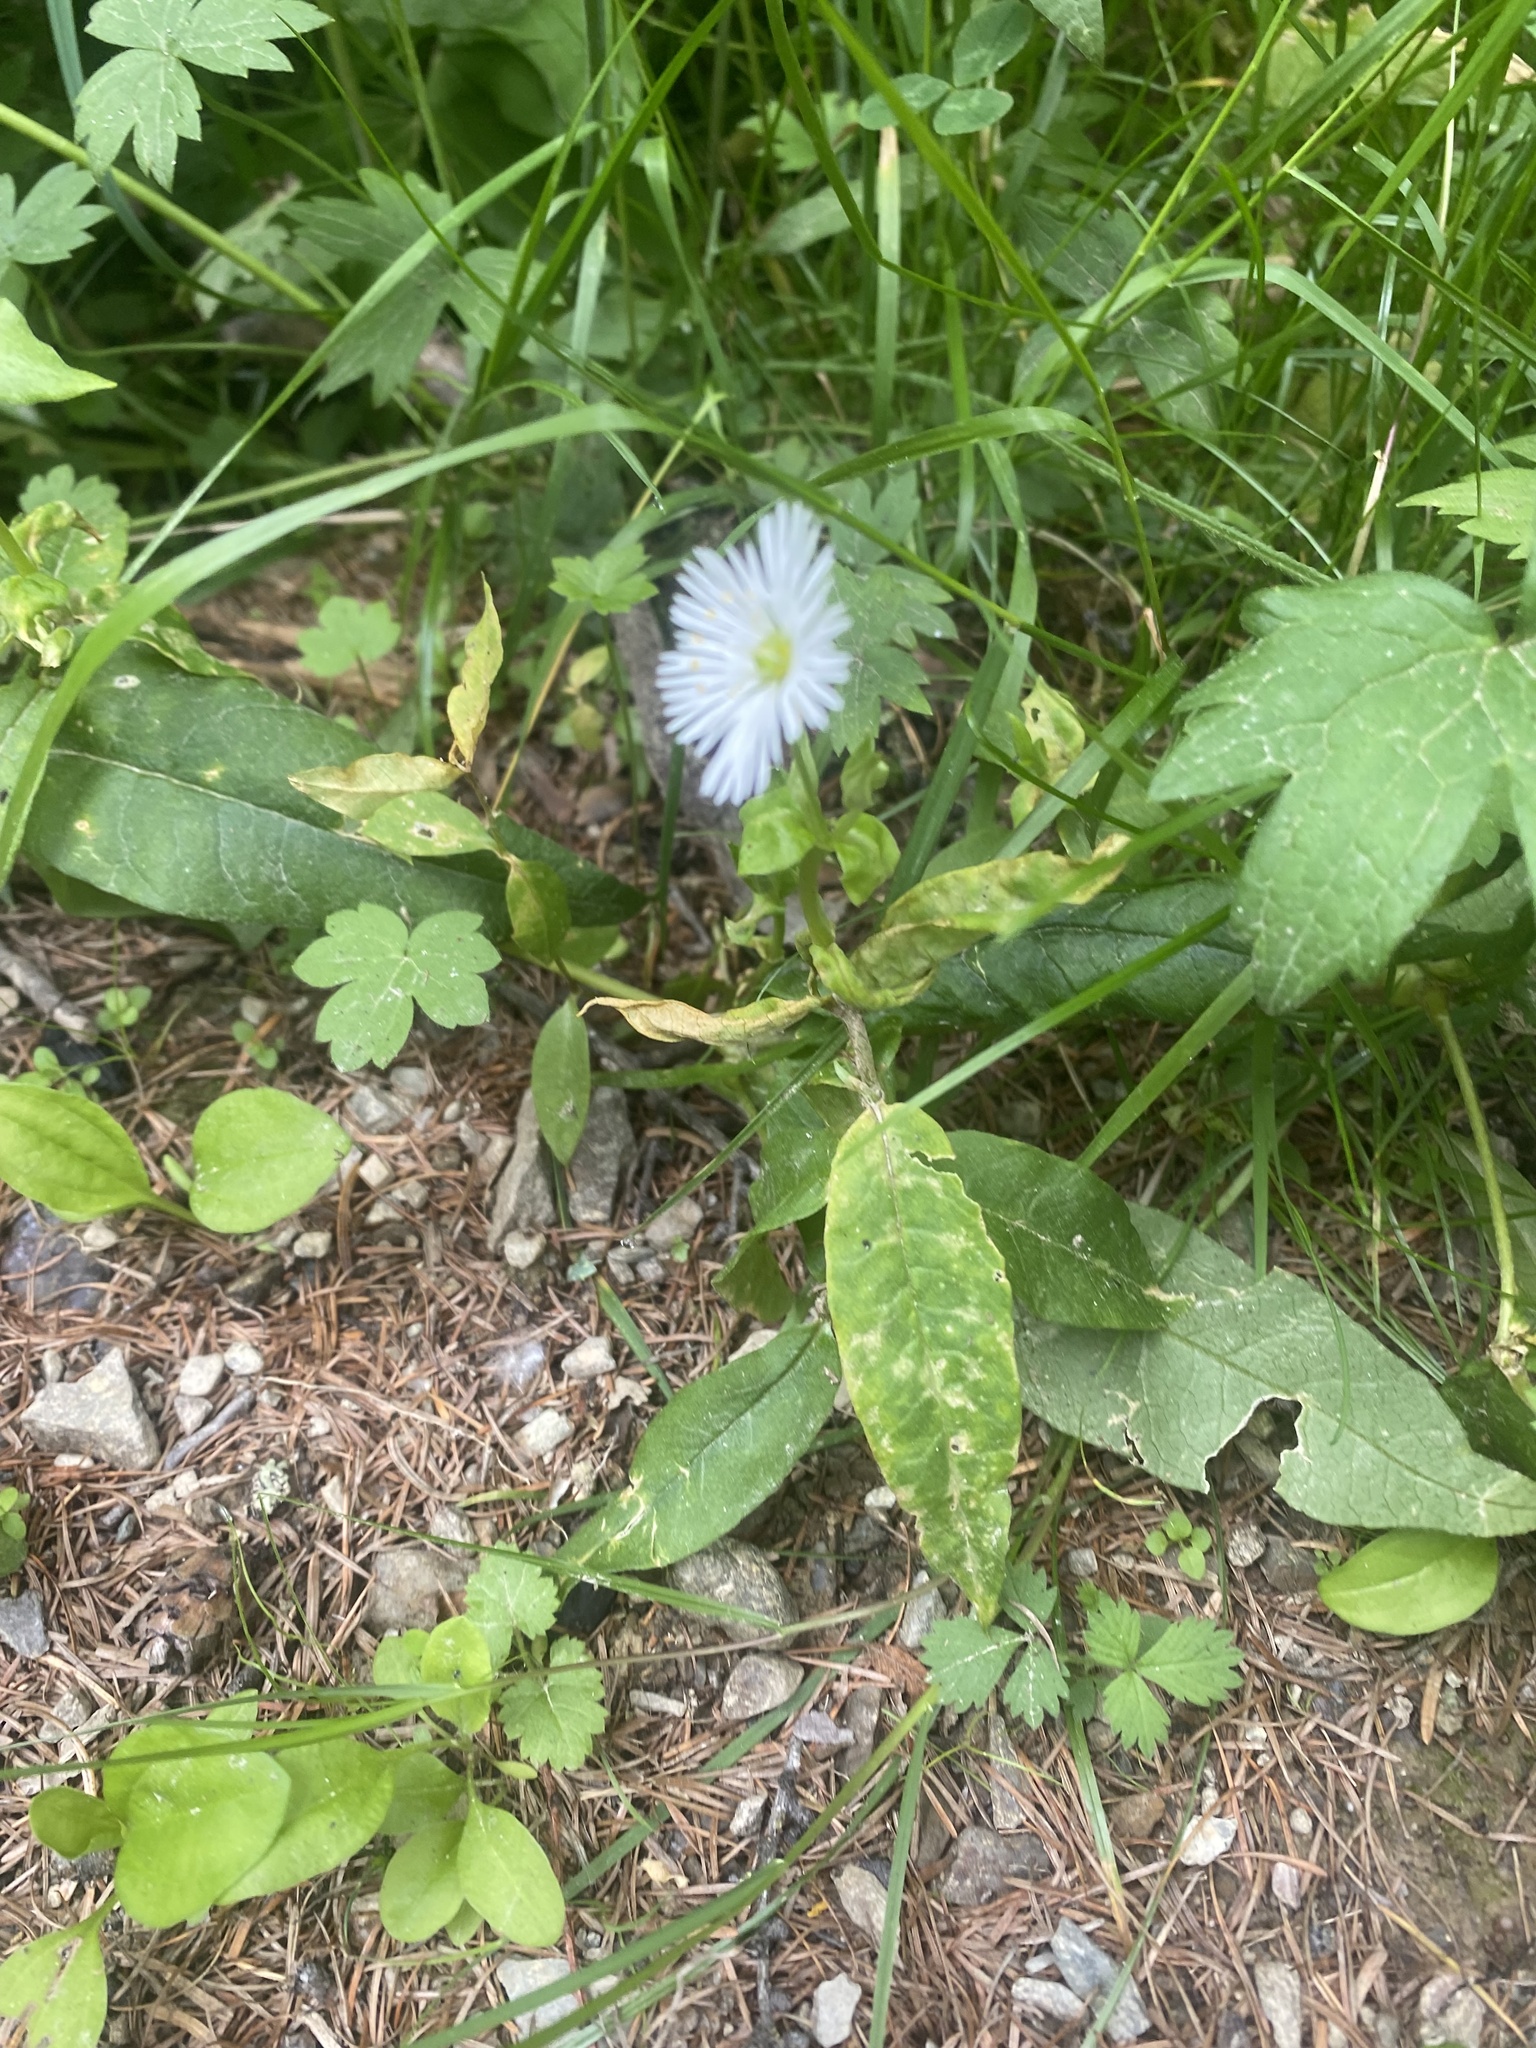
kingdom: Plantae
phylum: Tracheophyta
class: Magnoliopsida
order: Caryophyllales
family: Caryophyllaceae
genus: Stellaria
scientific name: Stellaria radians
